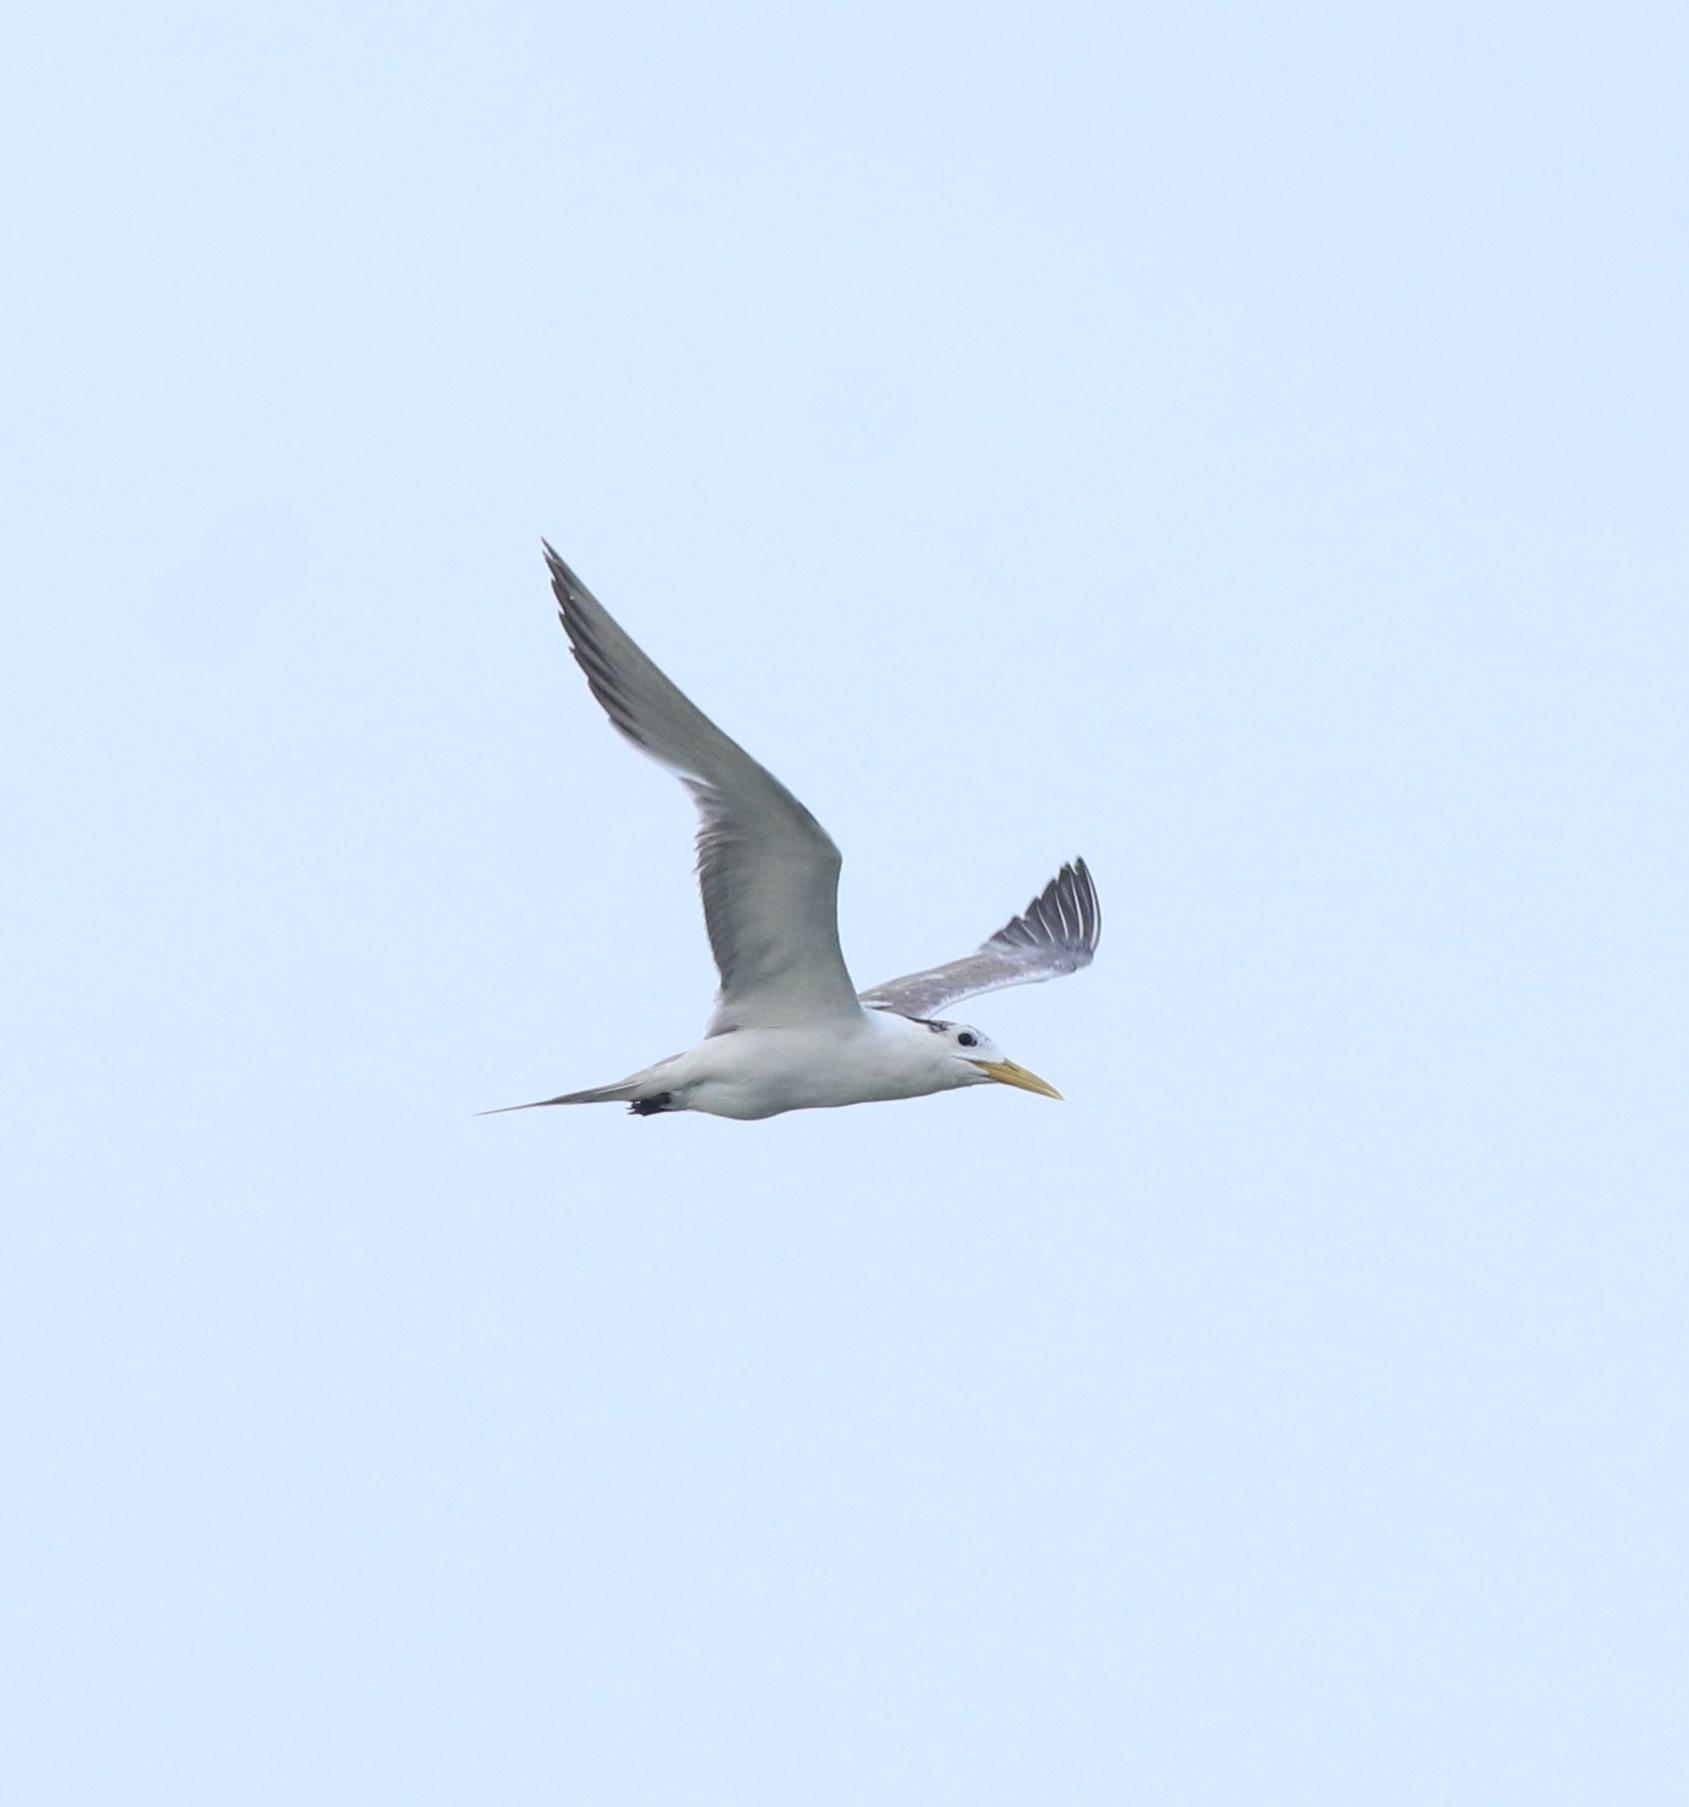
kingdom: Animalia
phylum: Chordata
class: Aves
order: Charadriiformes
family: Laridae
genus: Thalasseus
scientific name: Thalasseus bergii
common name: Greater crested tern
